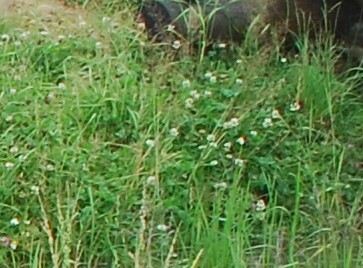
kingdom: Plantae
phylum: Tracheophyta
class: Magnoliopsida
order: Fabales
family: Fabaceae
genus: Trifolium
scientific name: Trifolium repens
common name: White clover
